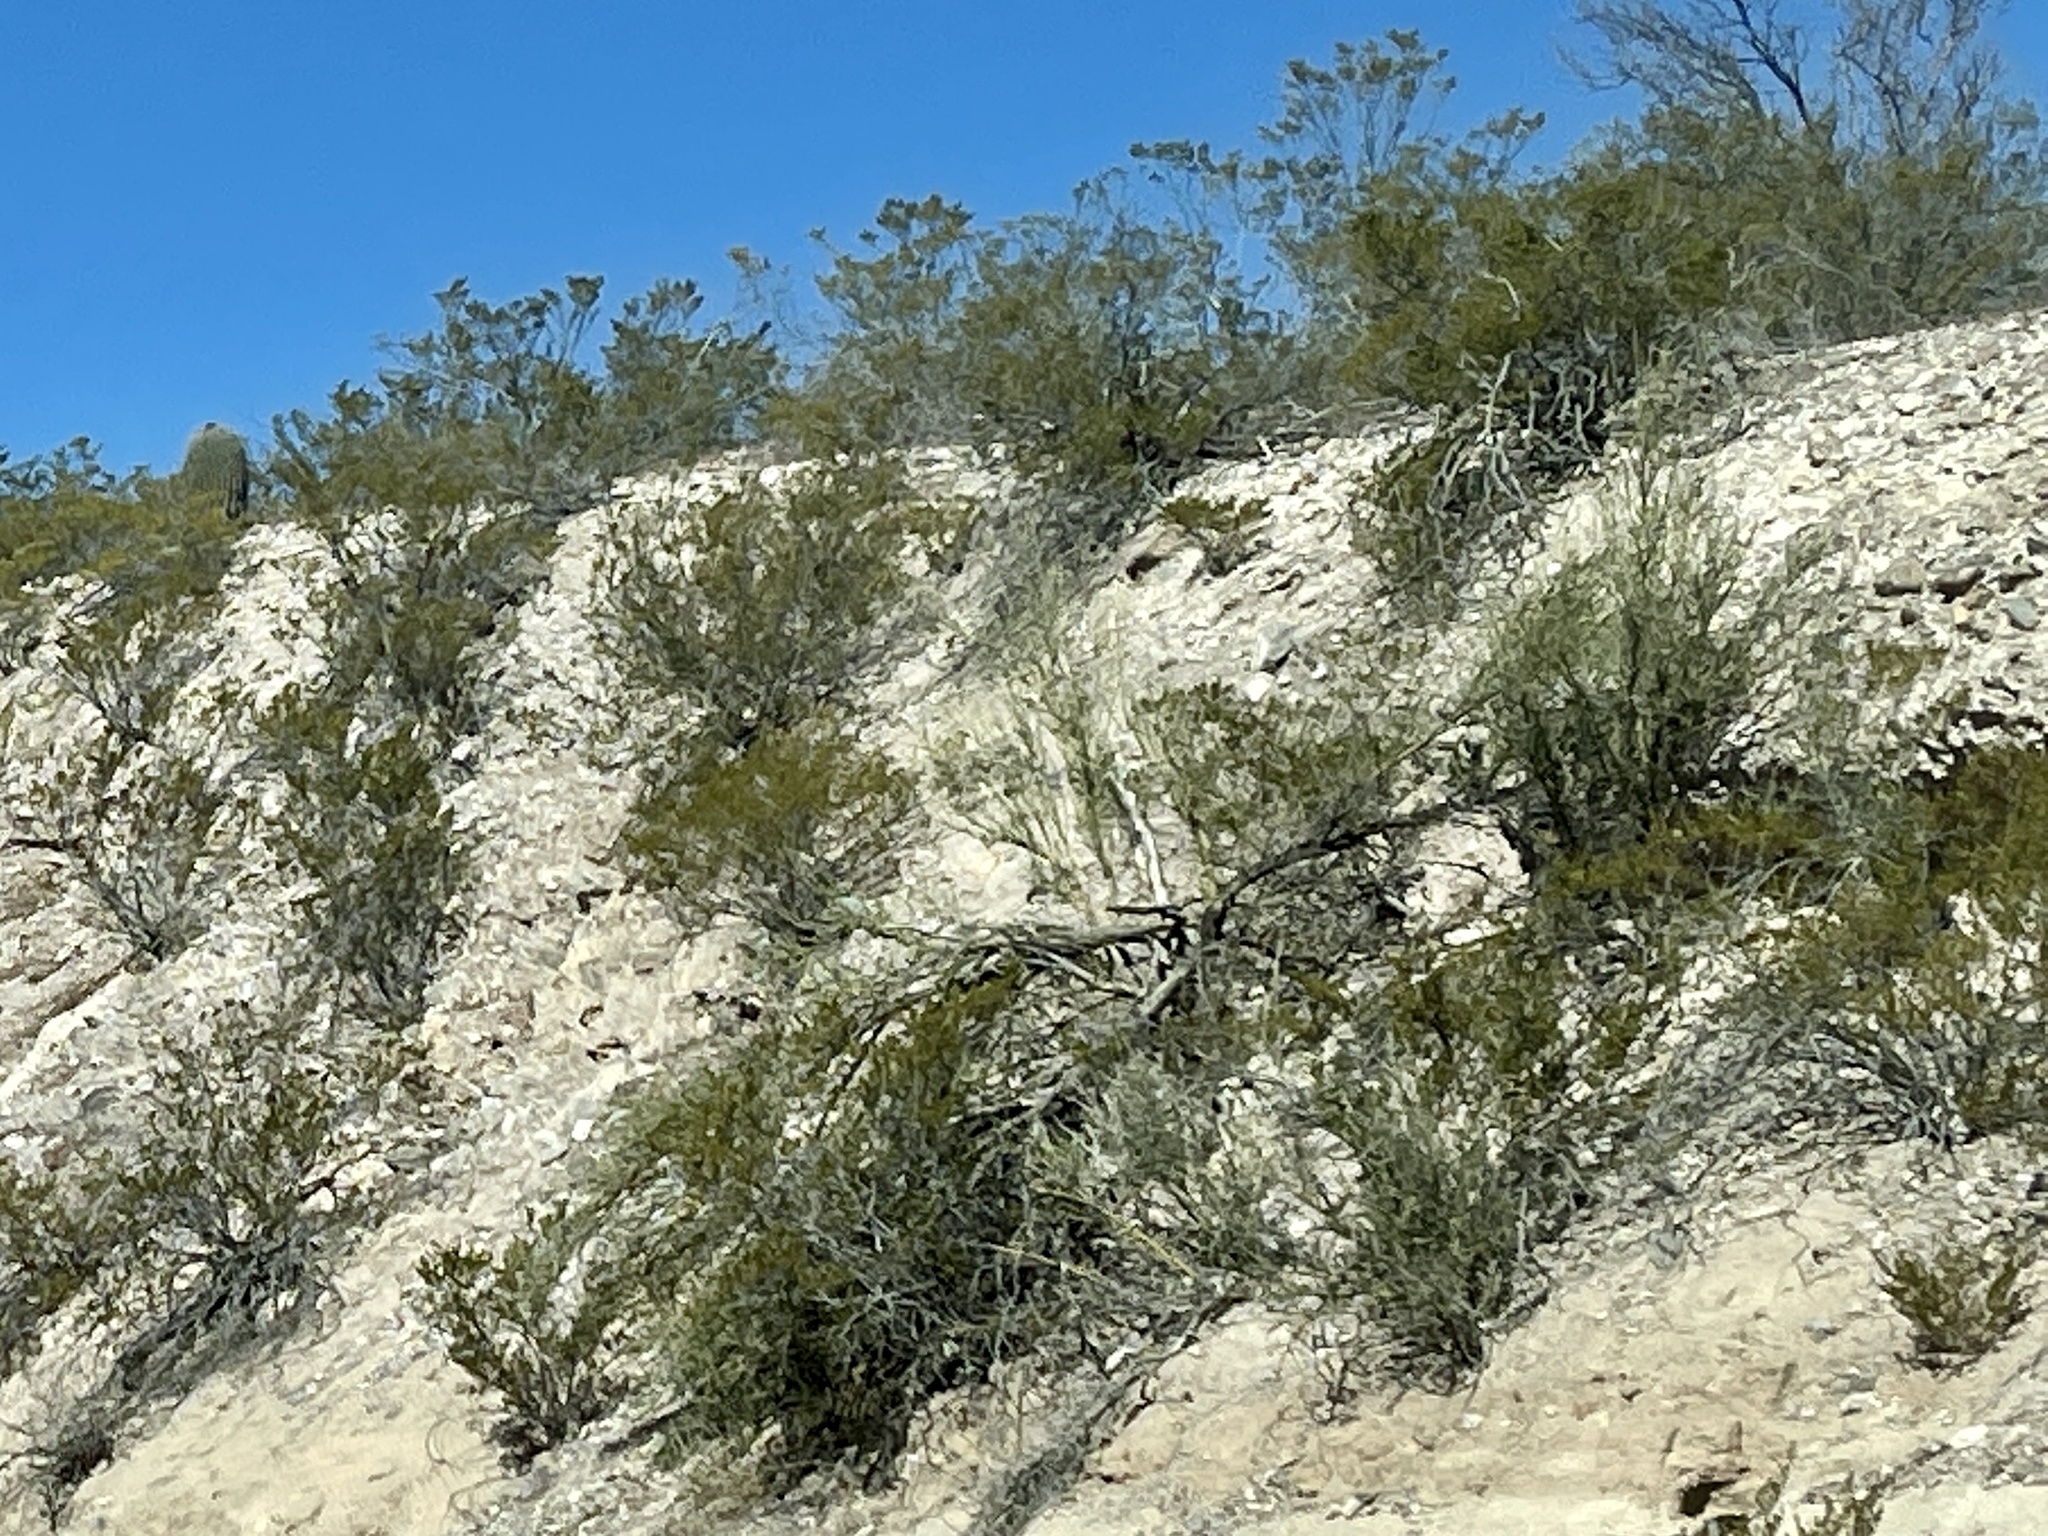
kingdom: Plantae
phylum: Tracheophyta
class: Magnoliopsida
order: Zygophyllales
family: Zygophyllaceae
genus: Larrea
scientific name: Larrea tridentata
